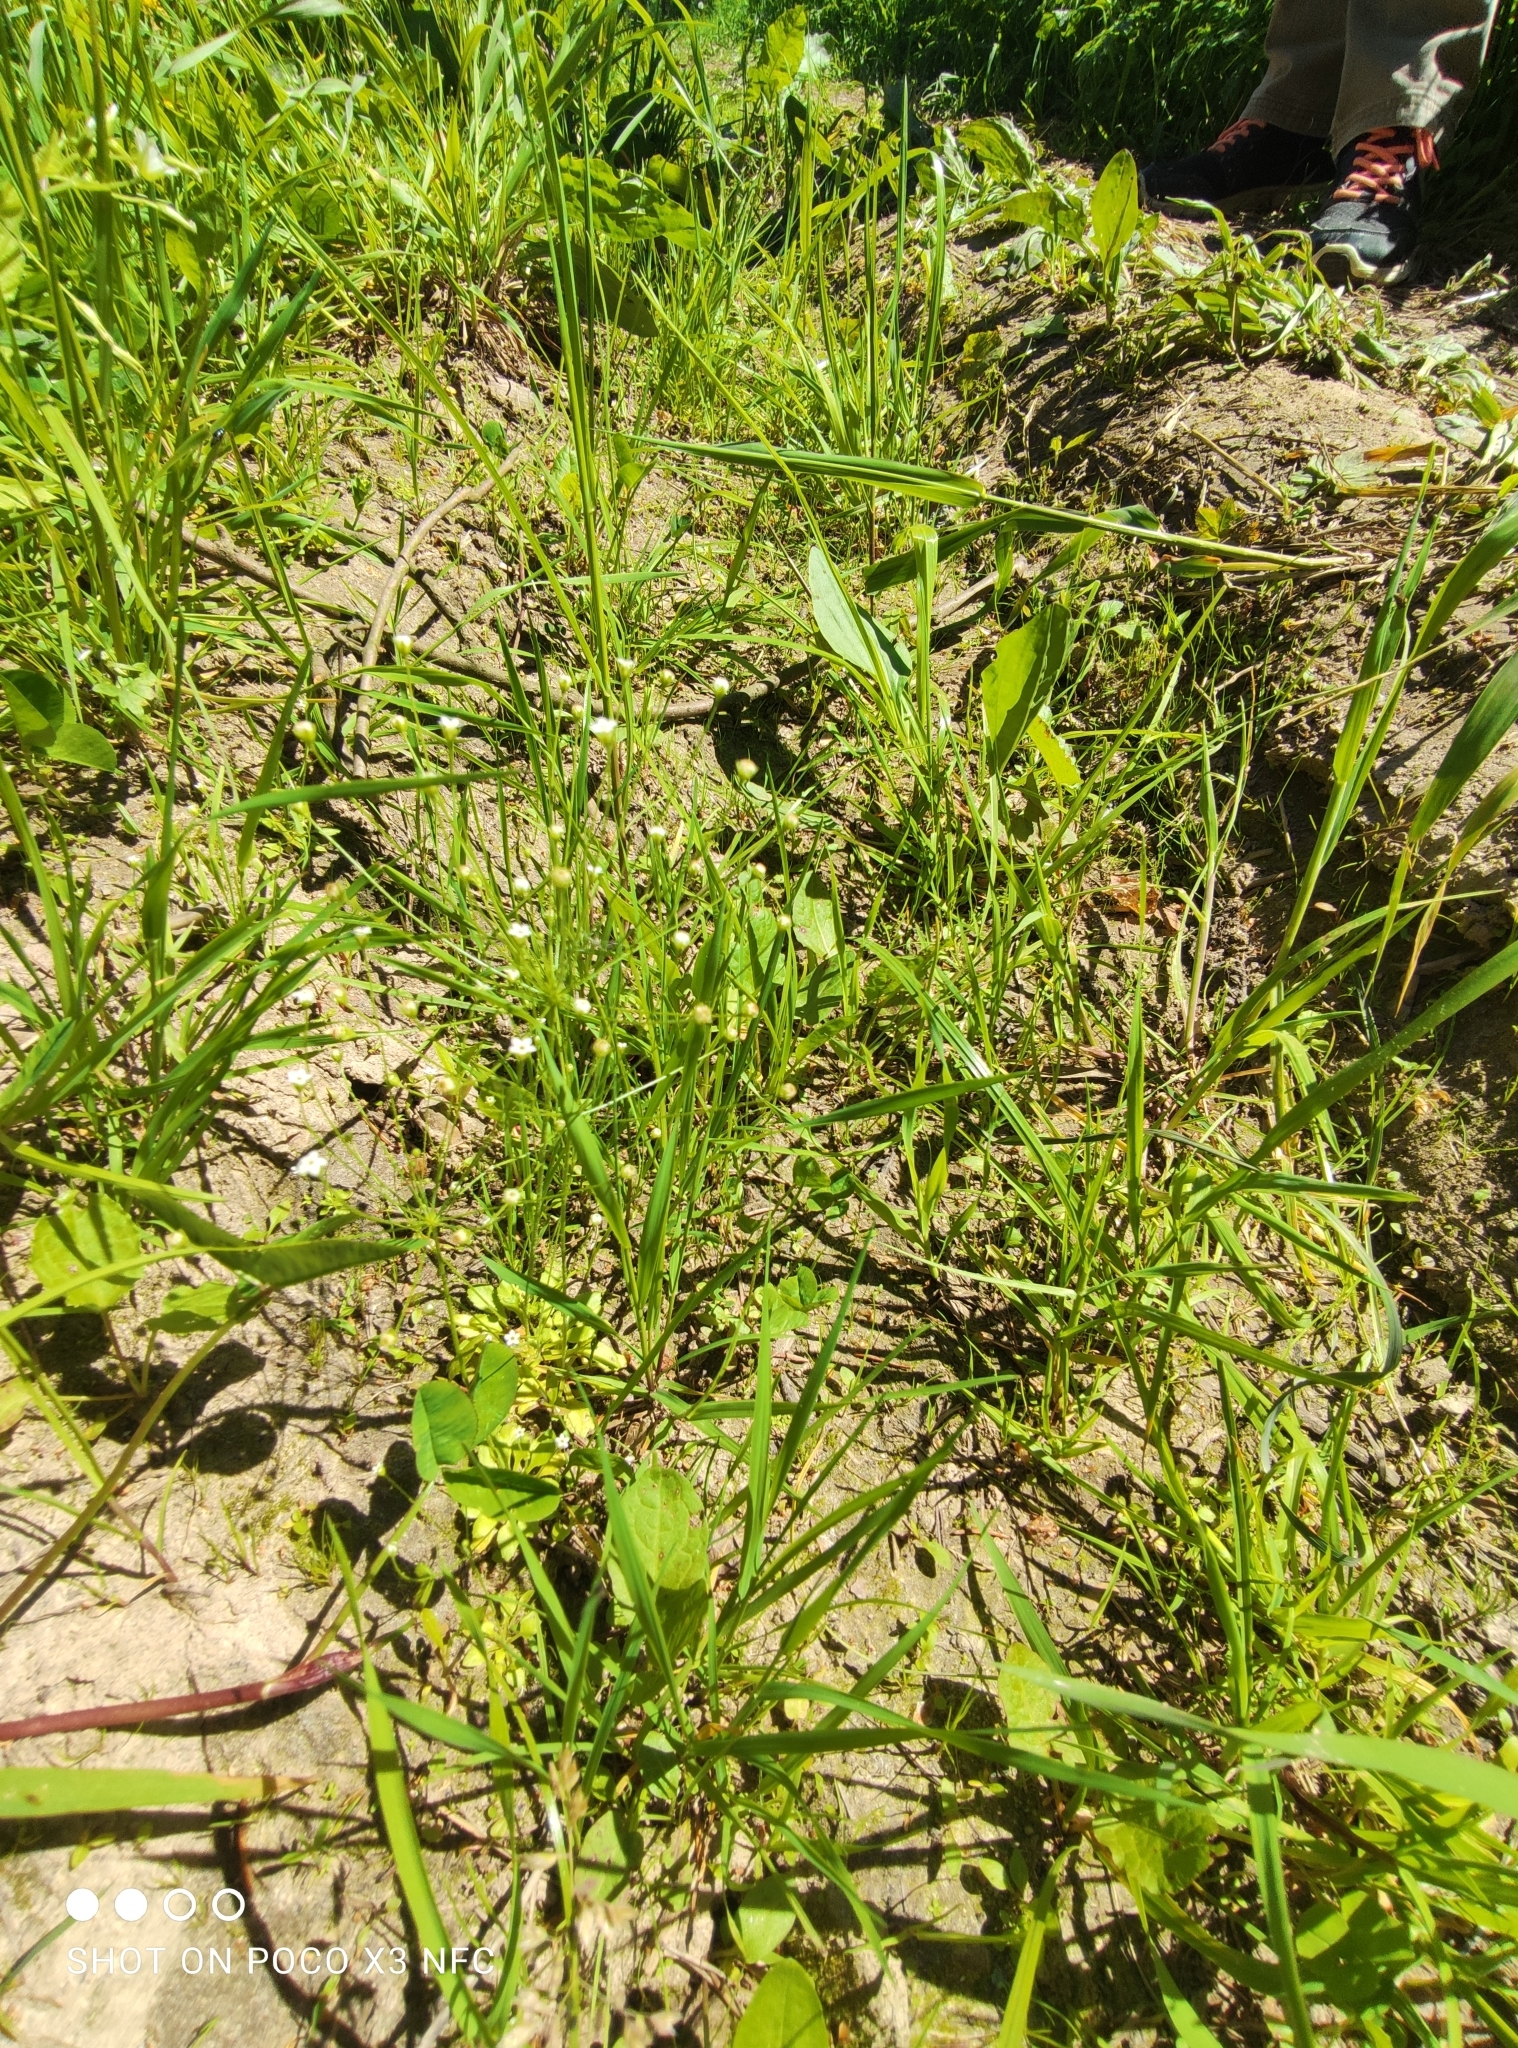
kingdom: Plantae
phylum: Tracheophyta
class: Magnoliopsida
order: Ericales
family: Primulaceae
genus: Androsace
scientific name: Androsace filiformis
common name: Filiform rock jasmine
